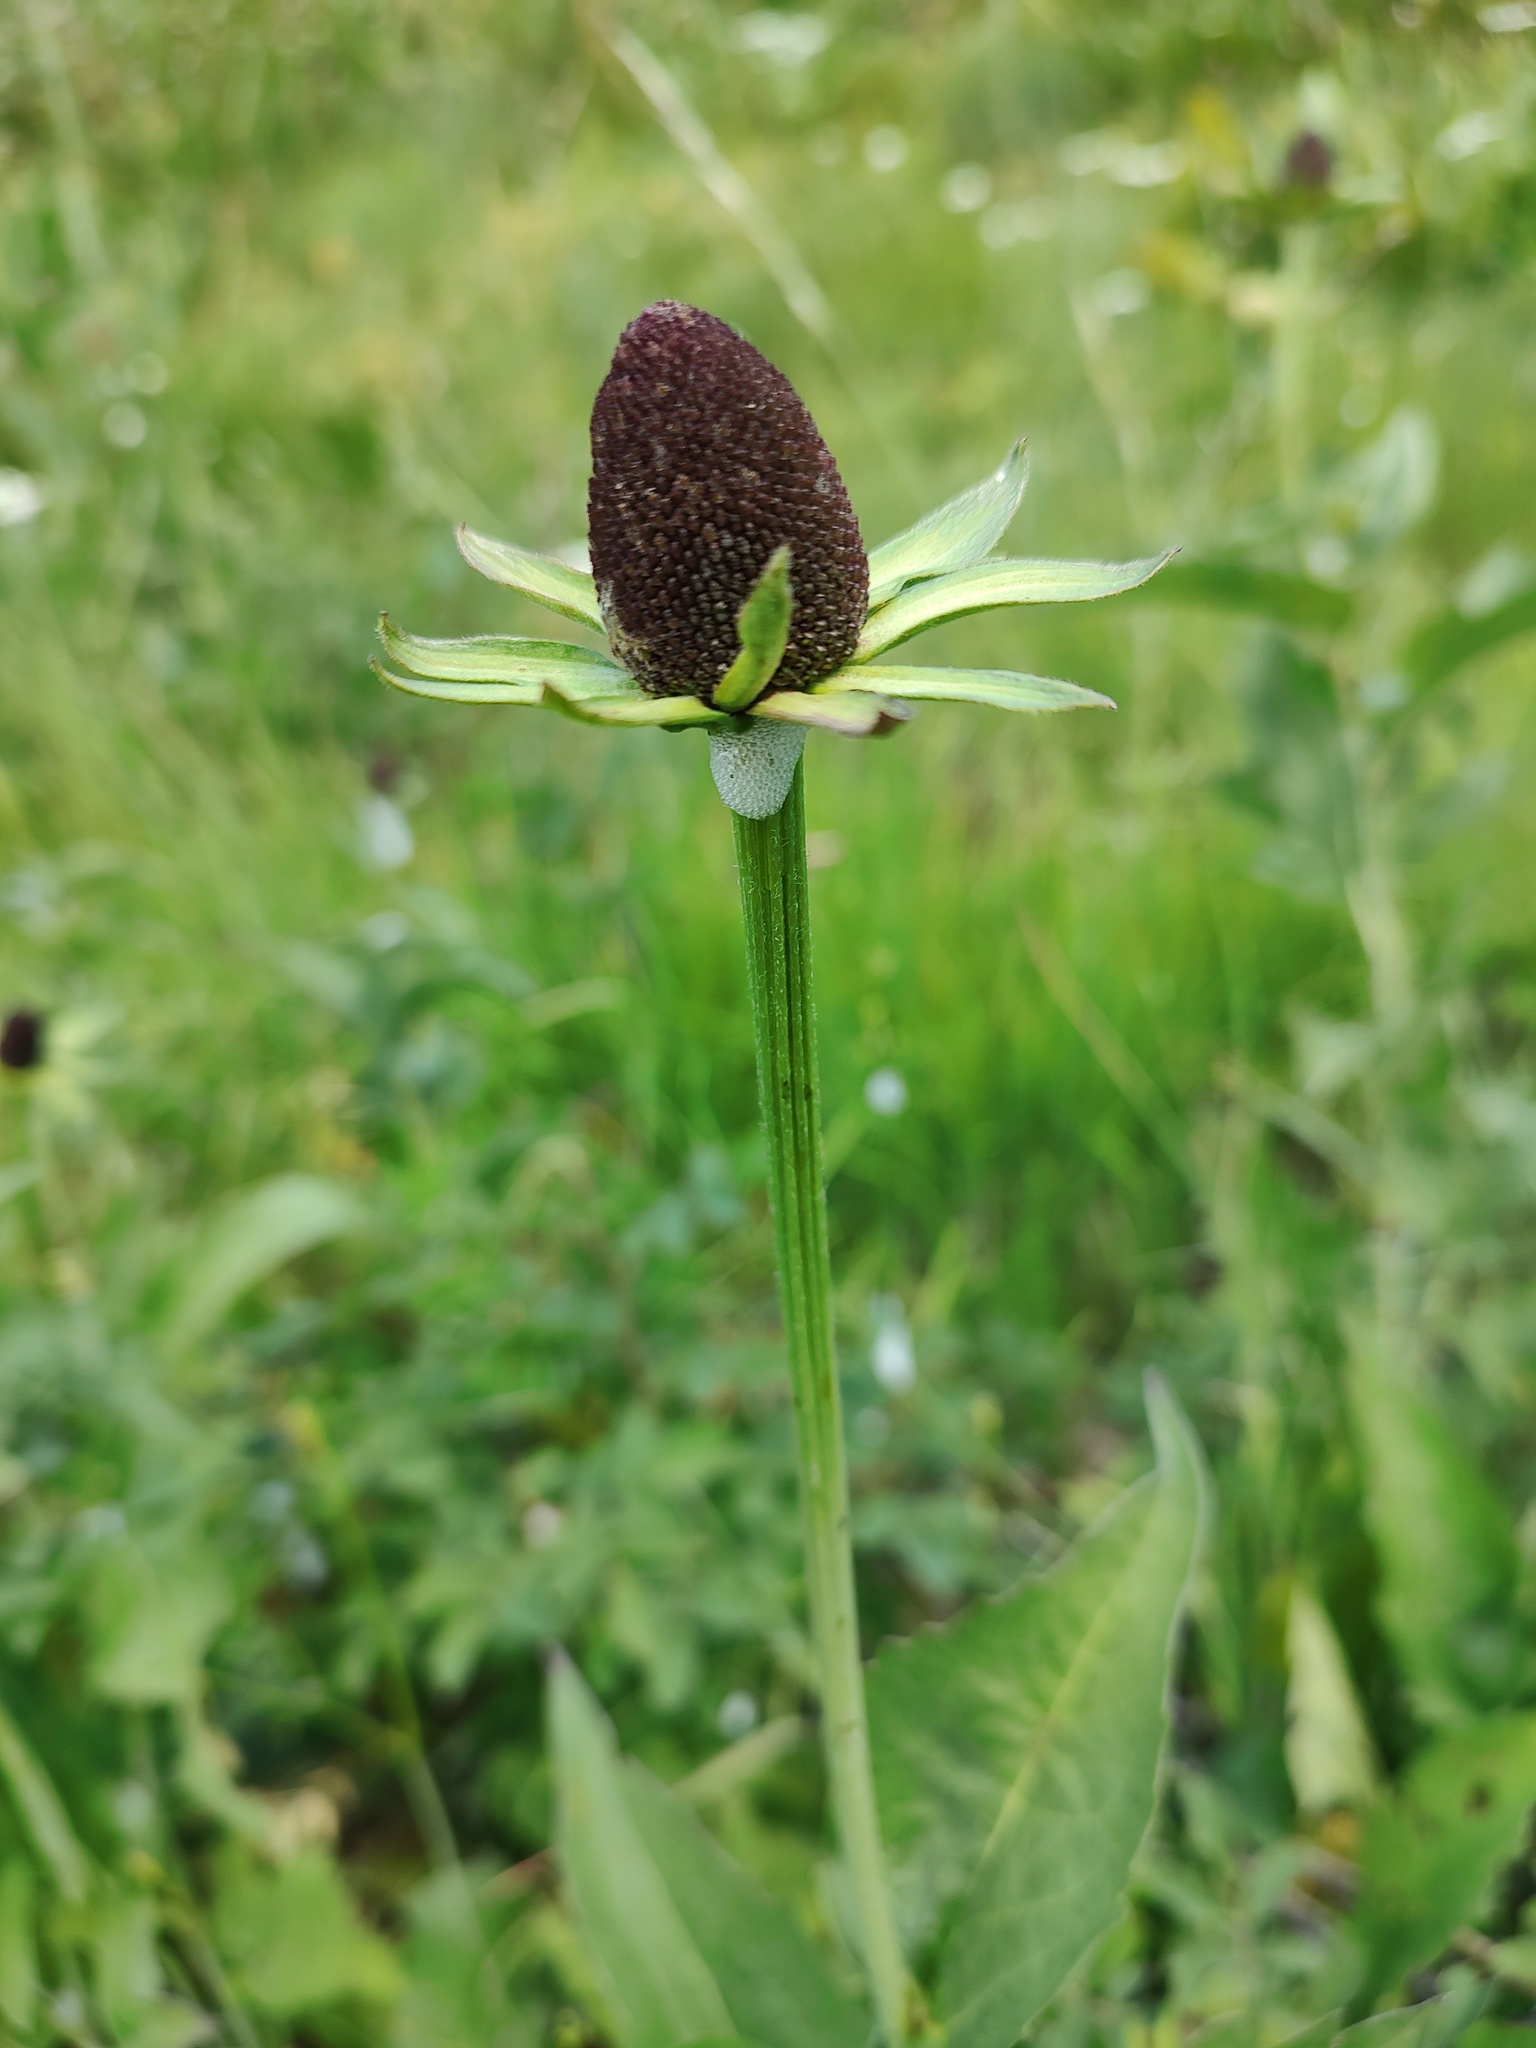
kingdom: Plantae
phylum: Tracheophyta
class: Magnoliopsida
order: Asterales
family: Asteraceae
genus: Rudbeckia
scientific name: Rudbeckia alpicola
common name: Washington coneflower
